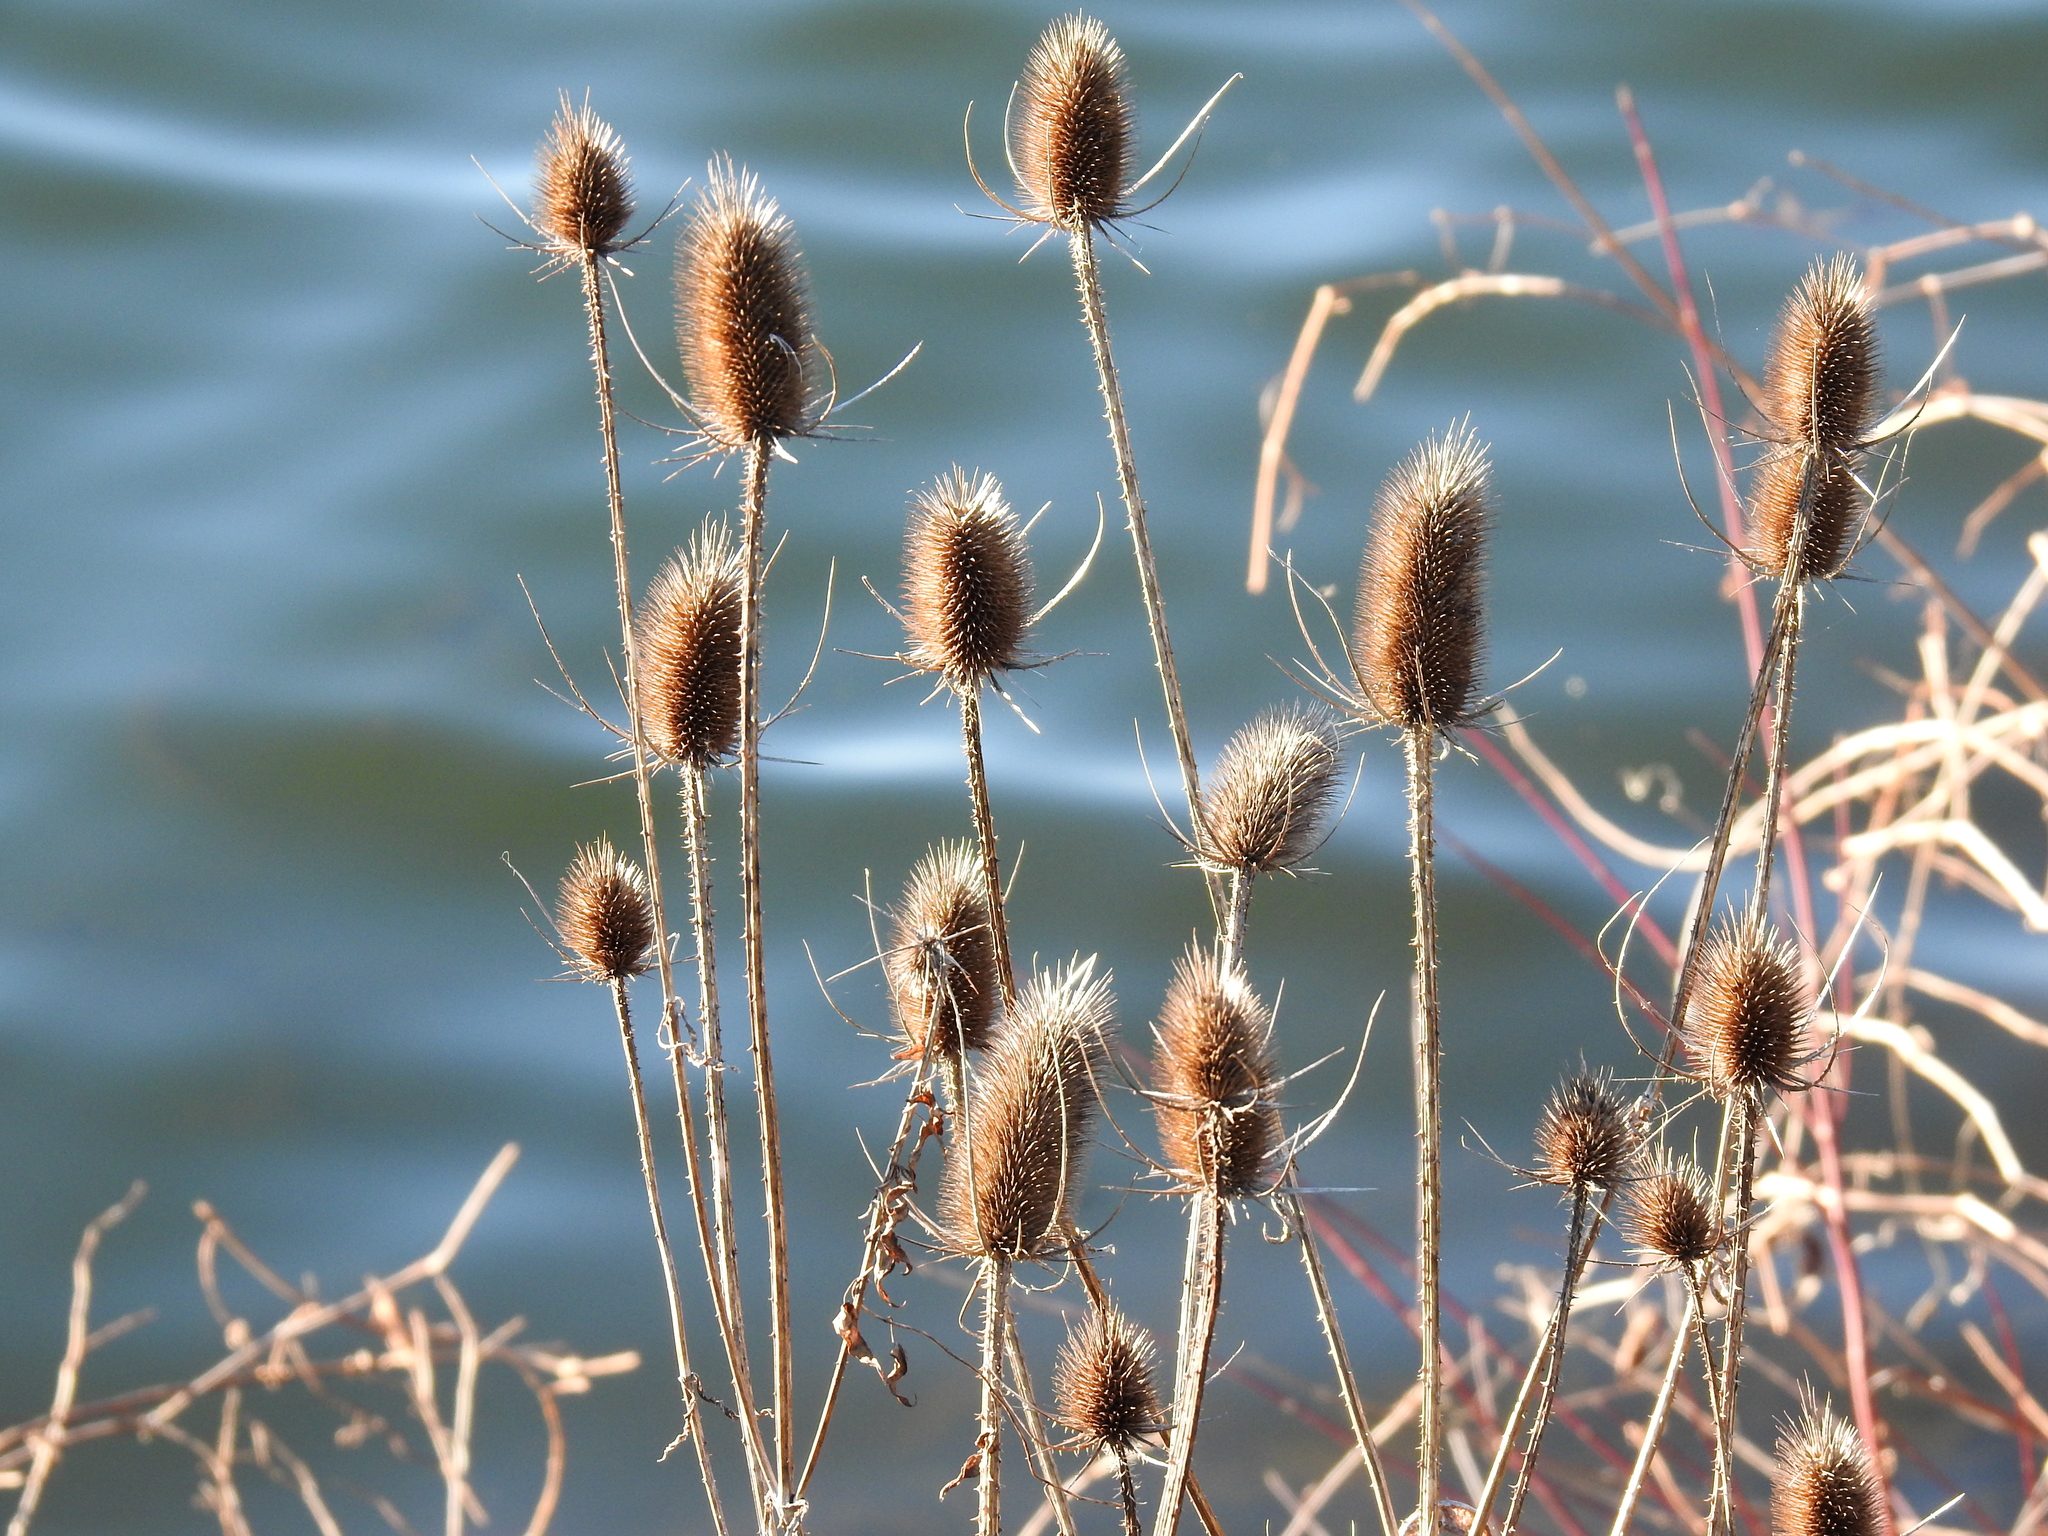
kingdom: Plantae
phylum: Tracheophyta
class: Magnoliopsida
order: Dipsacales
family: Caprifoliaceae
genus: Dipsacus
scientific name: Dipsacus fullonum
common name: Teasel
